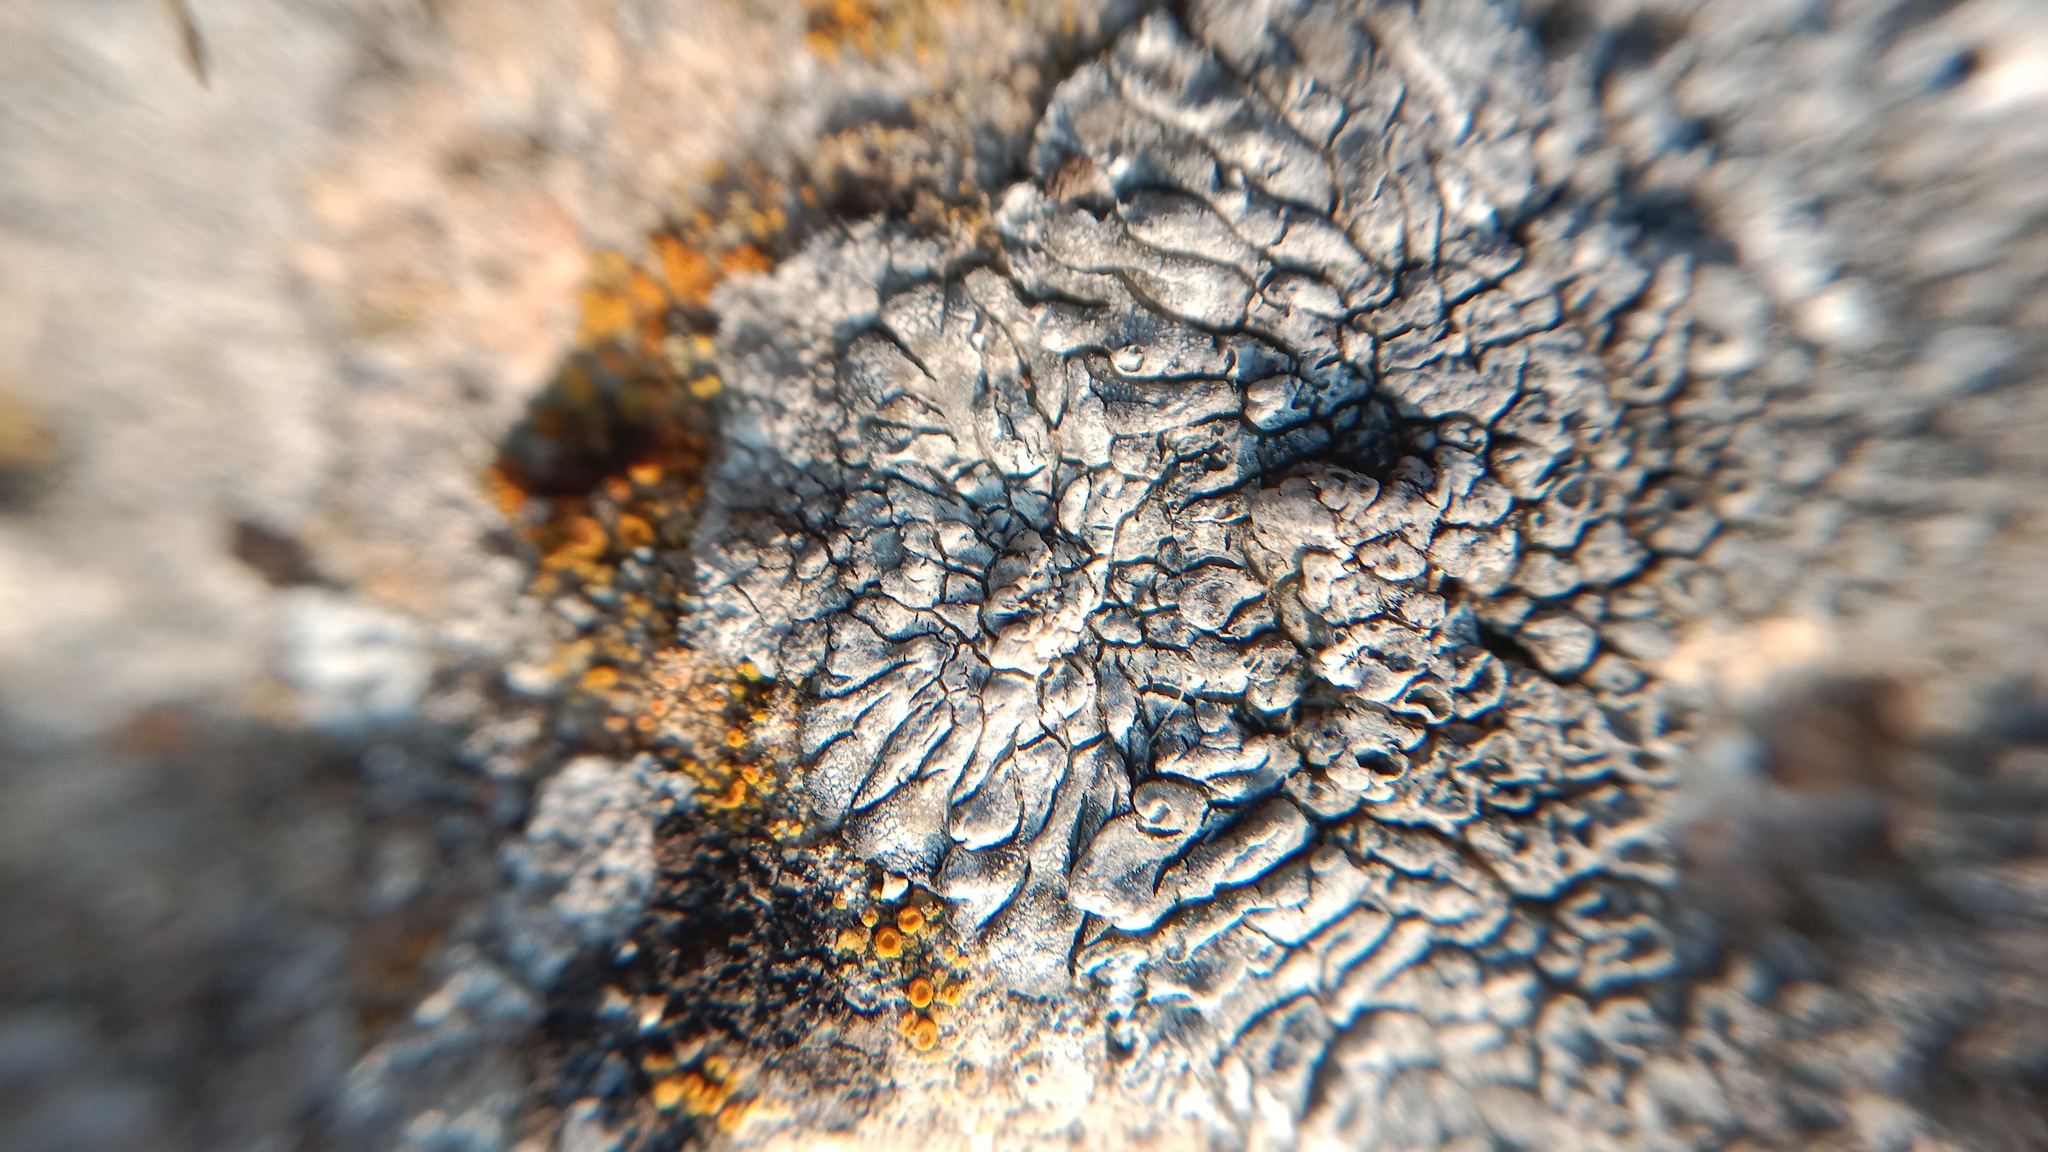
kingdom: Fungi
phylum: Ascomycota
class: Lecanoromycetes
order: Pertusariales
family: Megasporaceae
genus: Lobothallia
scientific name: Lobothallia radiosa
